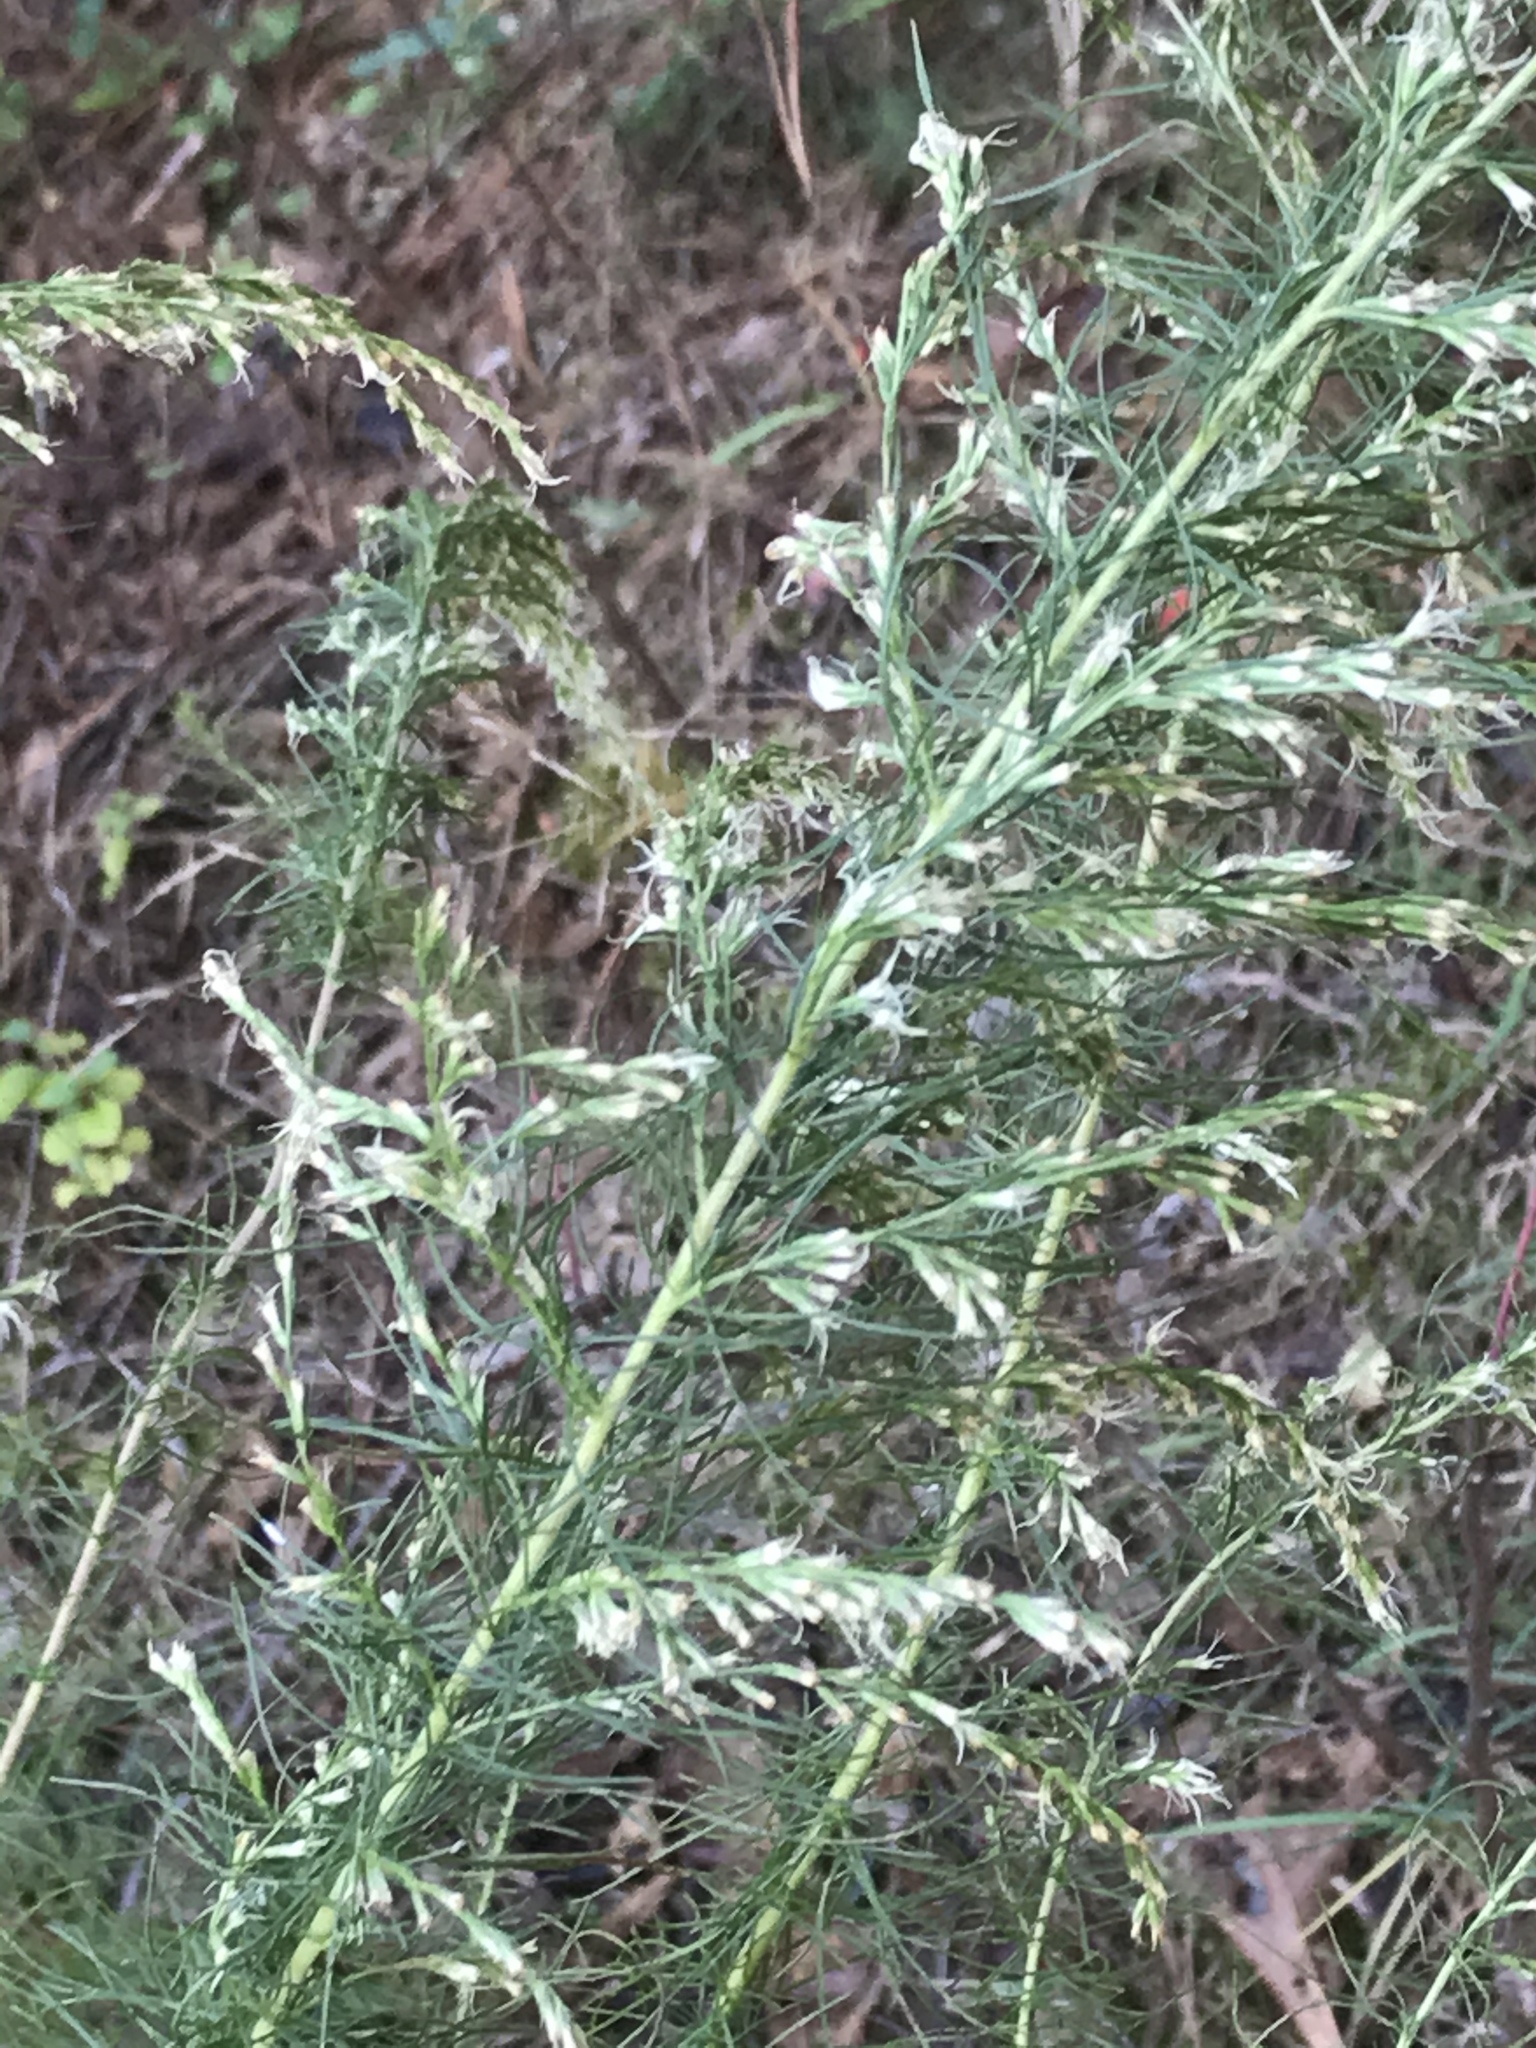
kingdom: Plantae
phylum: Tracheophyta
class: Magnoliopsida
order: Asterales
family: Asteraceae
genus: Eupatorium
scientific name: Eupatorium capillifolium
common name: Dog-fennel
